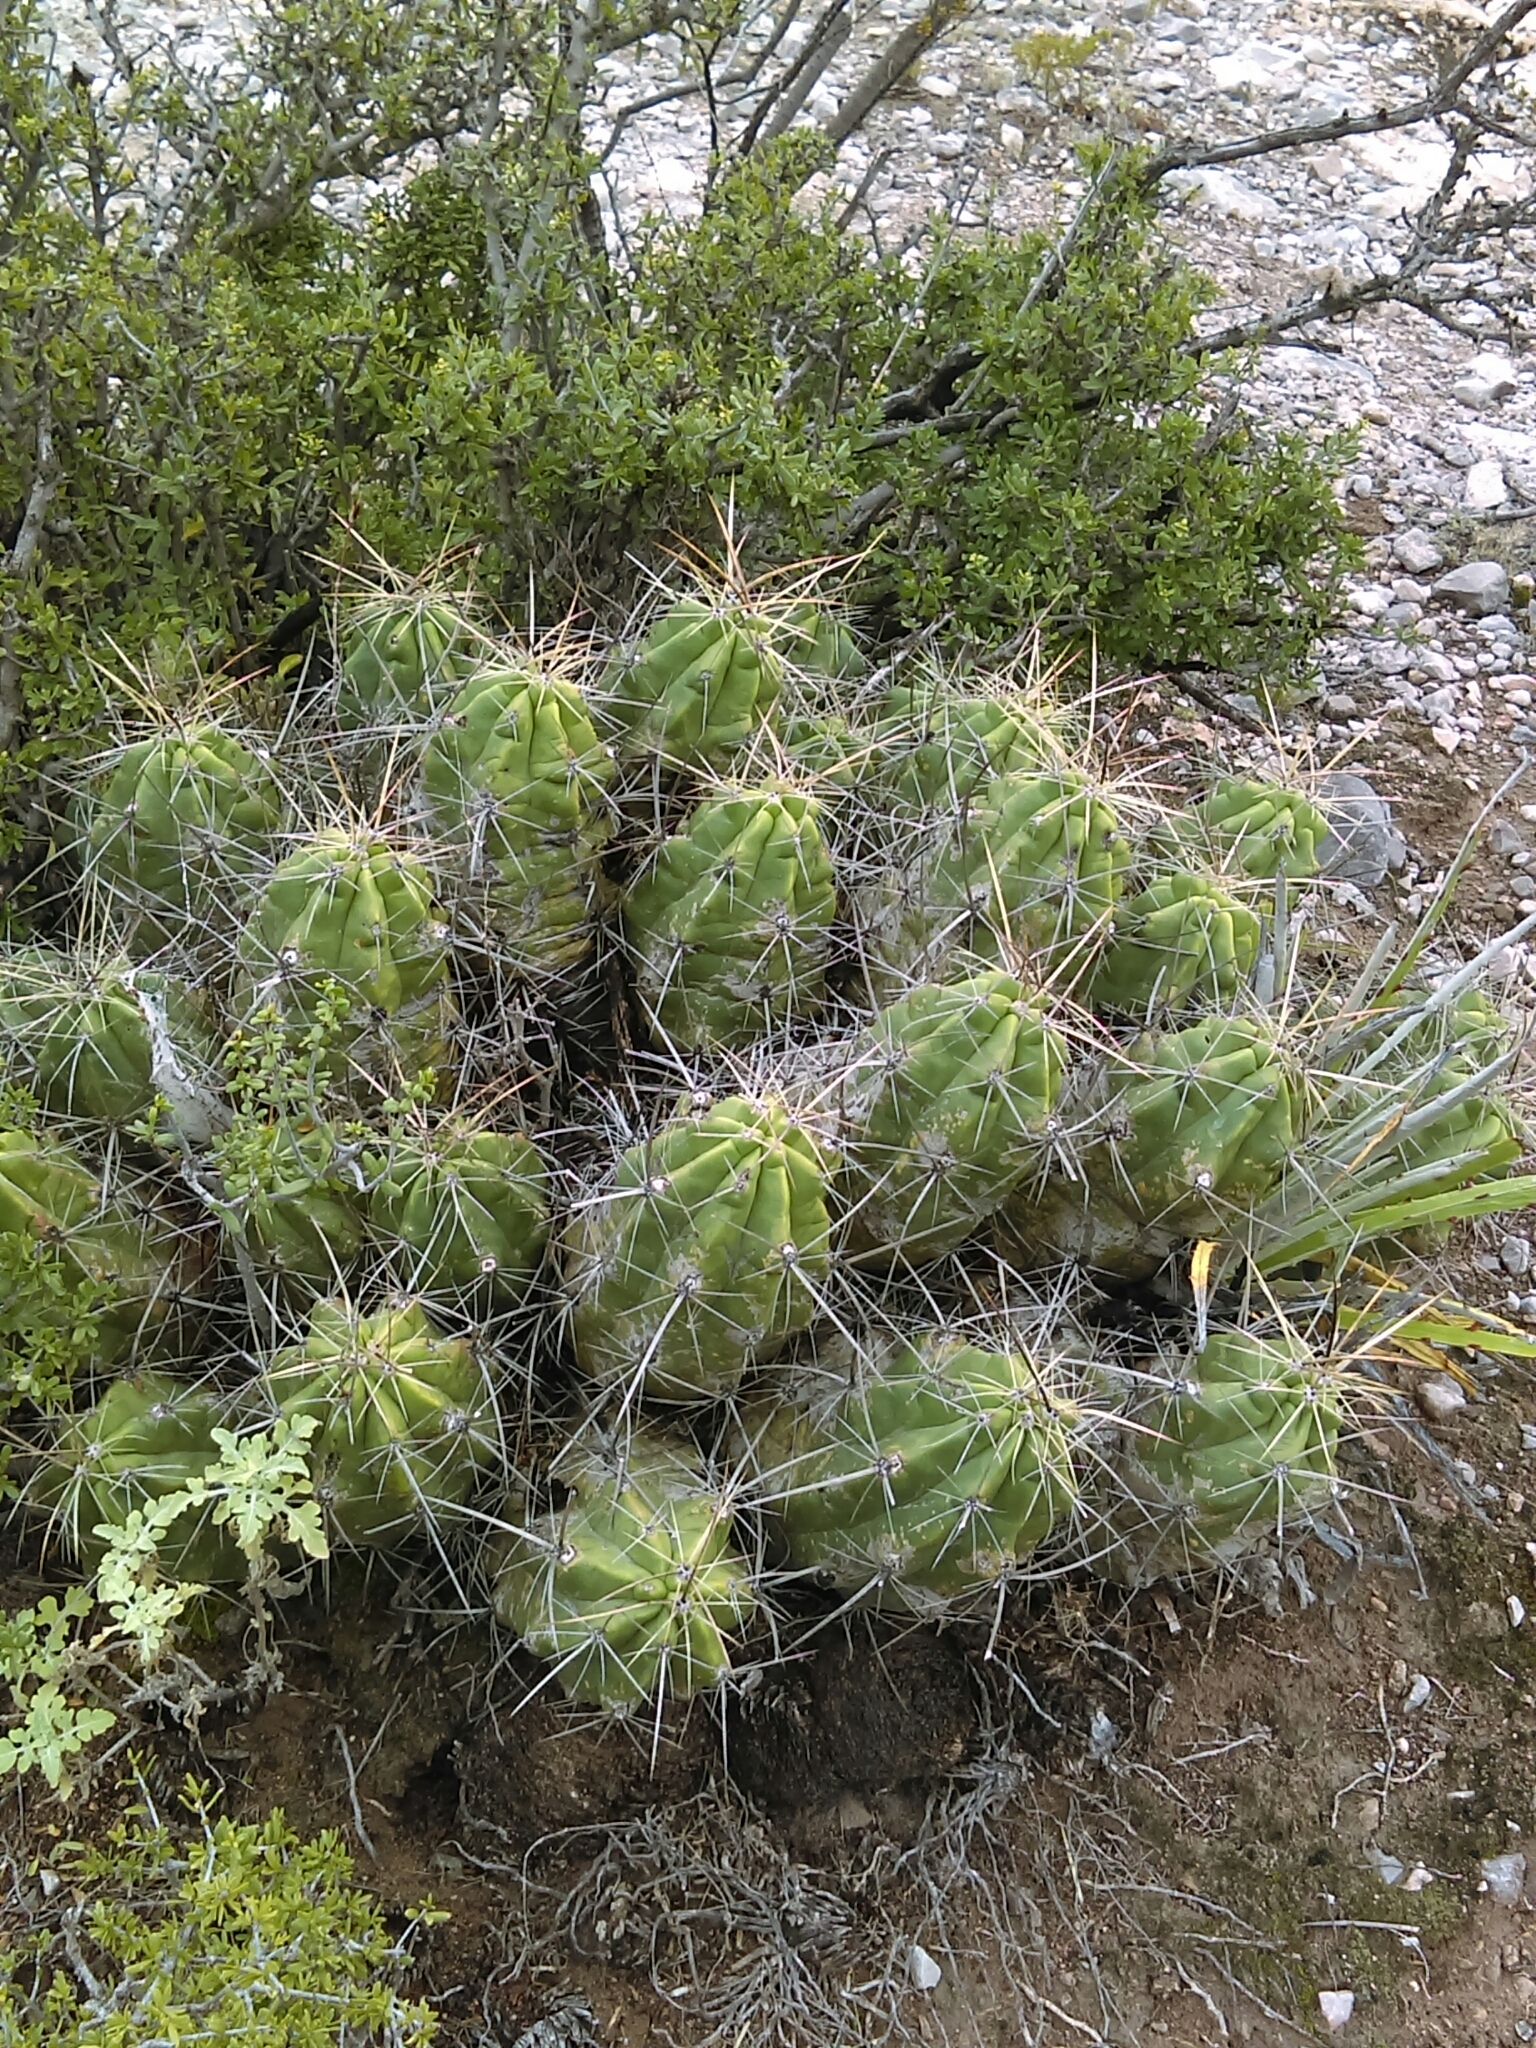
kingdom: Plantae
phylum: Tracheophyta
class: Magnoliopsida
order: Caryophyllales
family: Cactaceae
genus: Echinocereus
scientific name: Echinocereus enneacanthus
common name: Pitaya
